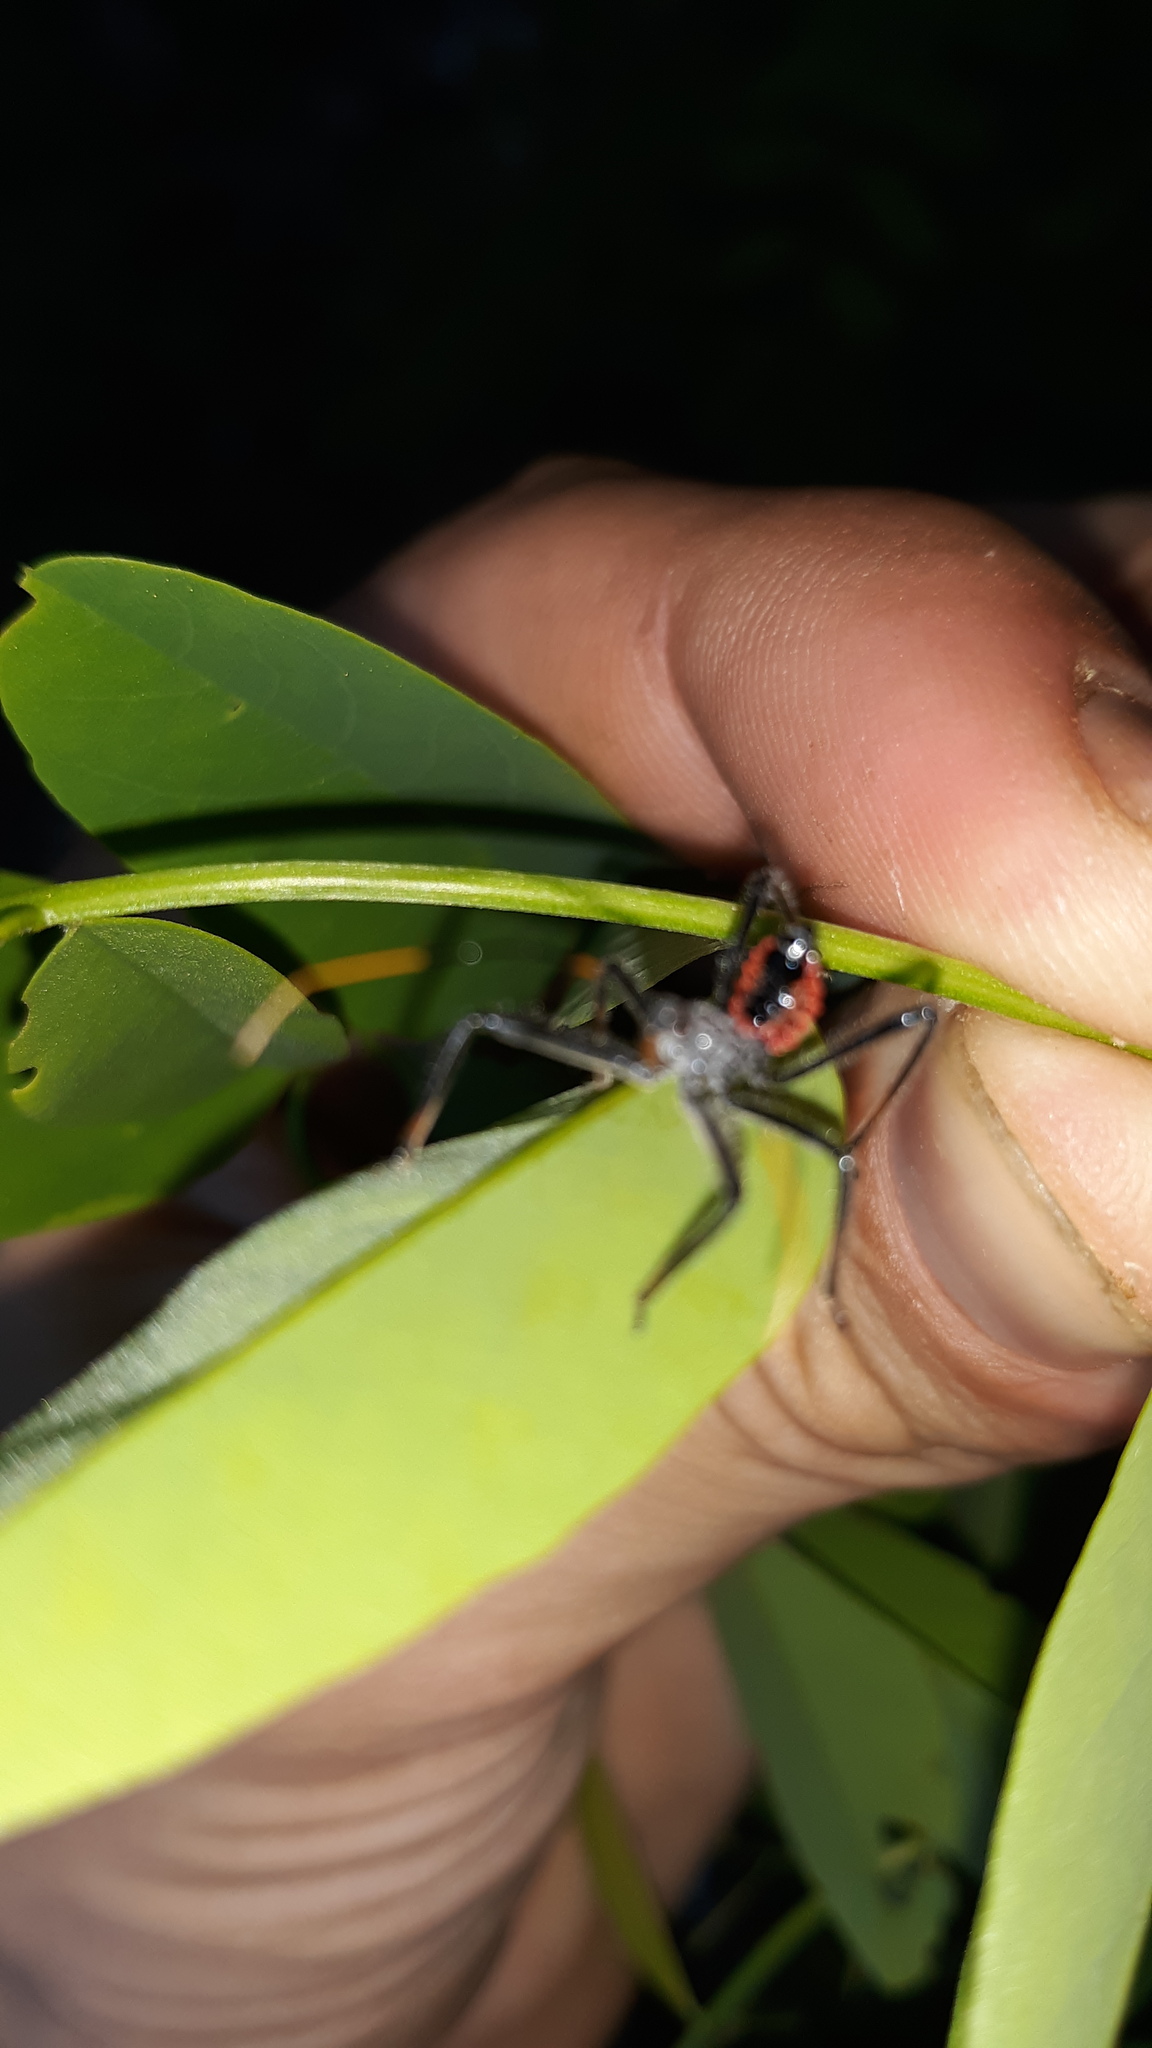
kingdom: Animalia
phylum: Arthropoda
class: Insecta
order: Hemiptera
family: Reduviidae
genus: Arilus
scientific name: Arilus cristatus
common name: North american wheel bug
